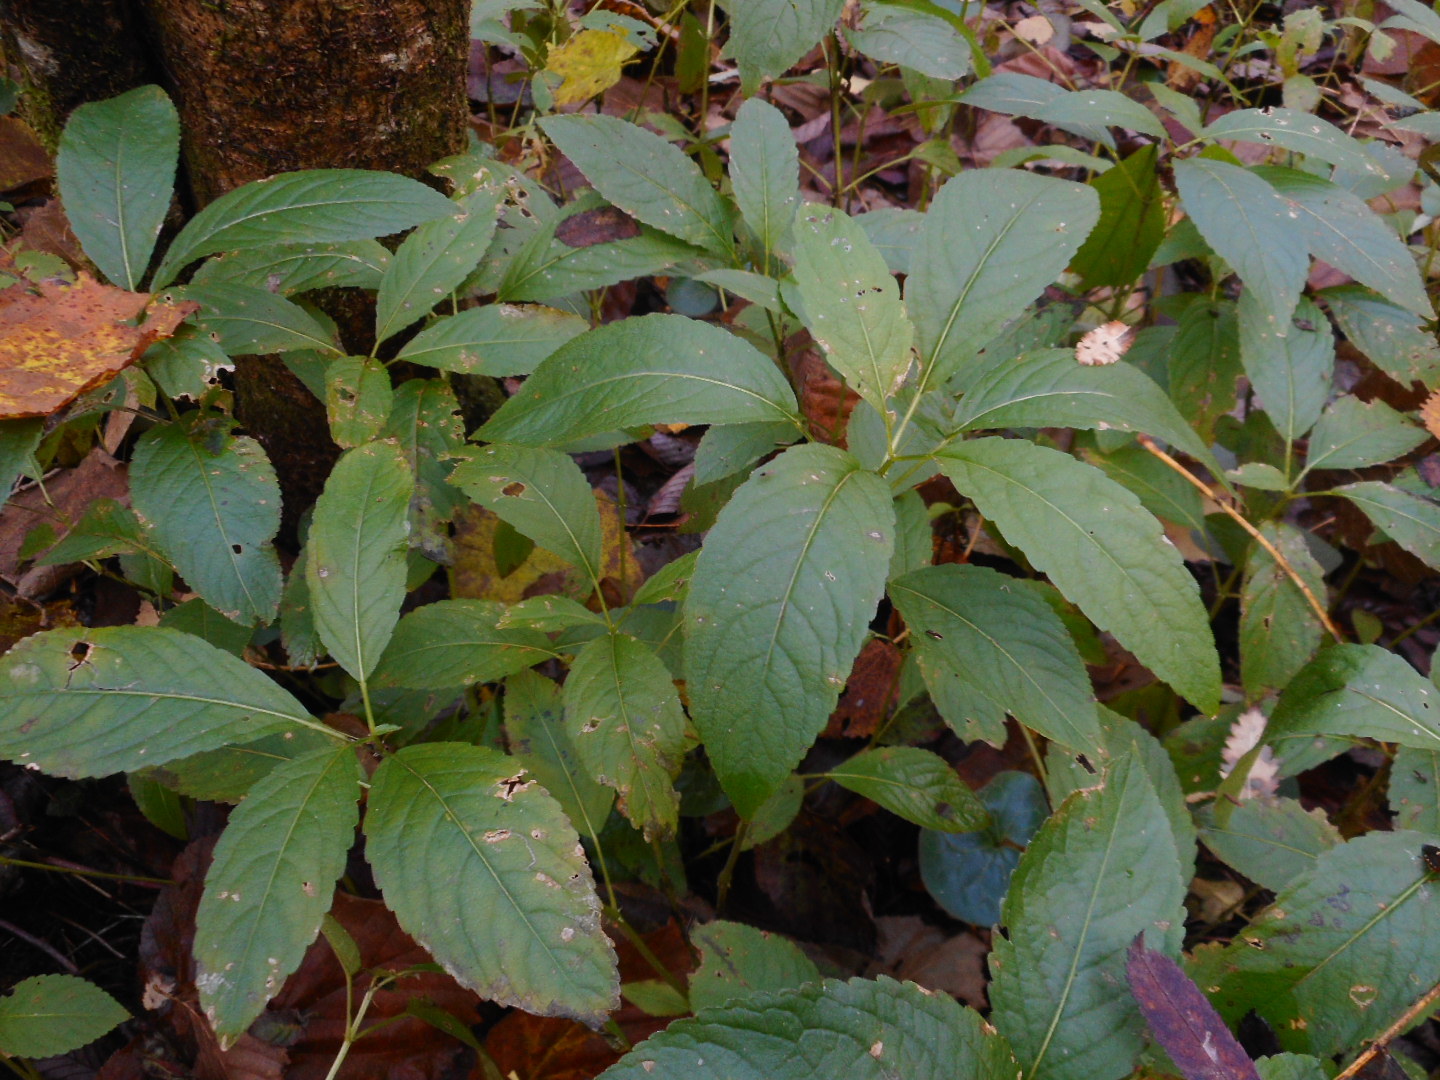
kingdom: Plantae
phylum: Tracheophyta
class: Magnoliopsida
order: Malpighiales
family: Euphorbiaceae
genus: Mercurialis
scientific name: Mercurialis perennis
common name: Dog mercury
